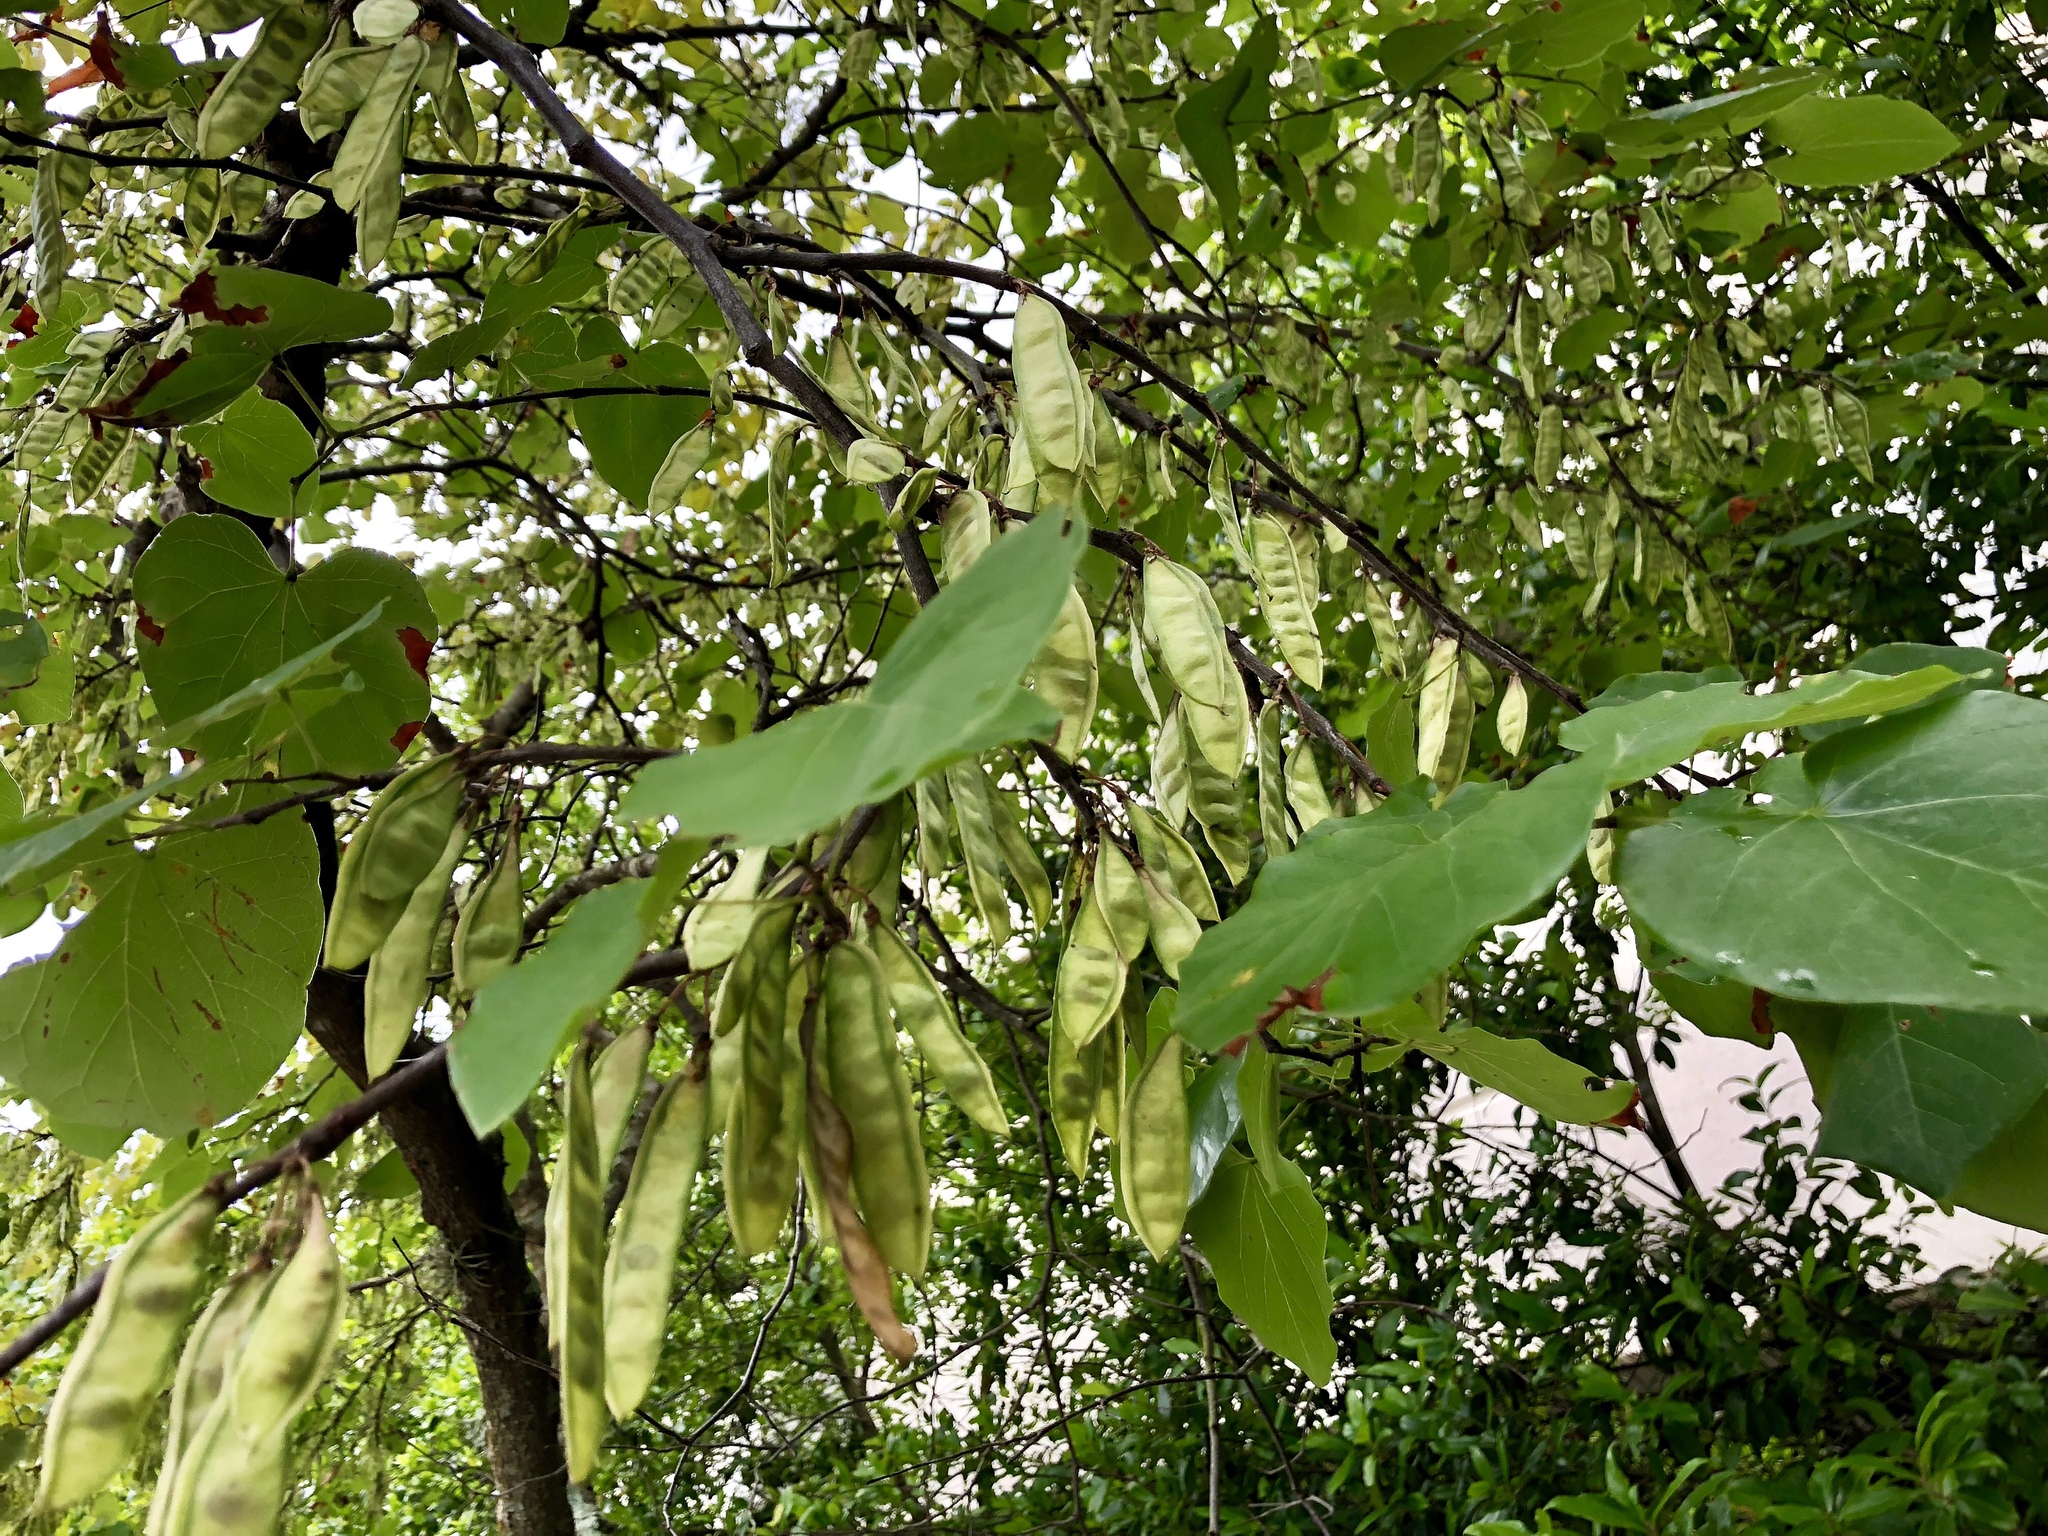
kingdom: Plantae
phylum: Tracheophyta
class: Magnoliopsida
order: Fabales
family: Fabaceae
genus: Cercis
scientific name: Cercis canadensis
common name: Eastern redbud
